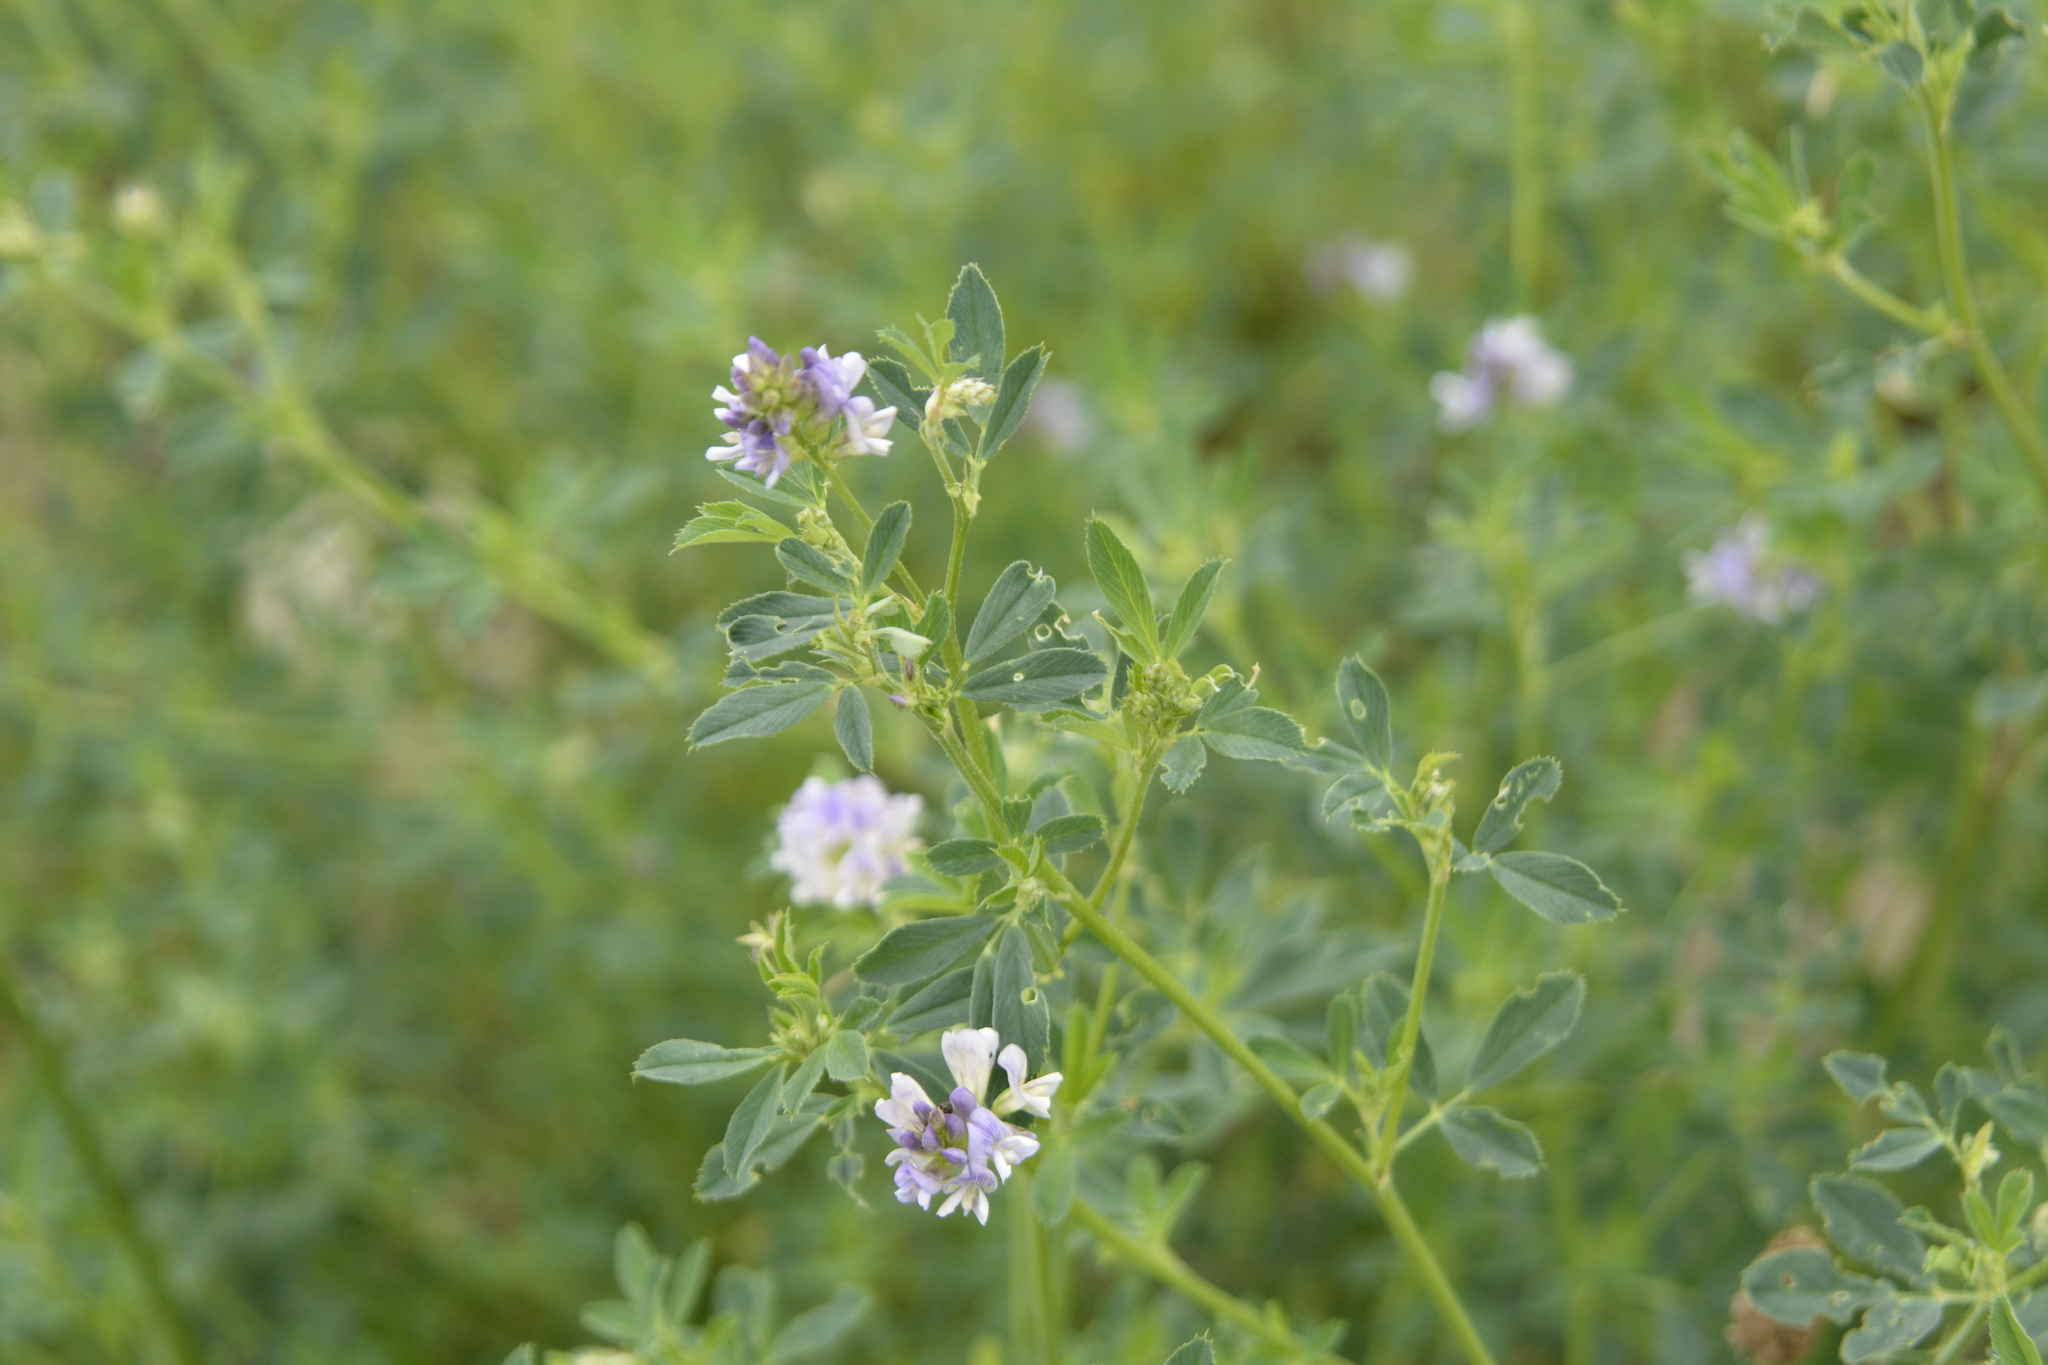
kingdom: Plantae
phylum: Tracheophyta
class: Magnoliopsida
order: Fabales
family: Fabaceae
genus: Medicago
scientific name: Medicago varia
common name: Sand lucerne
